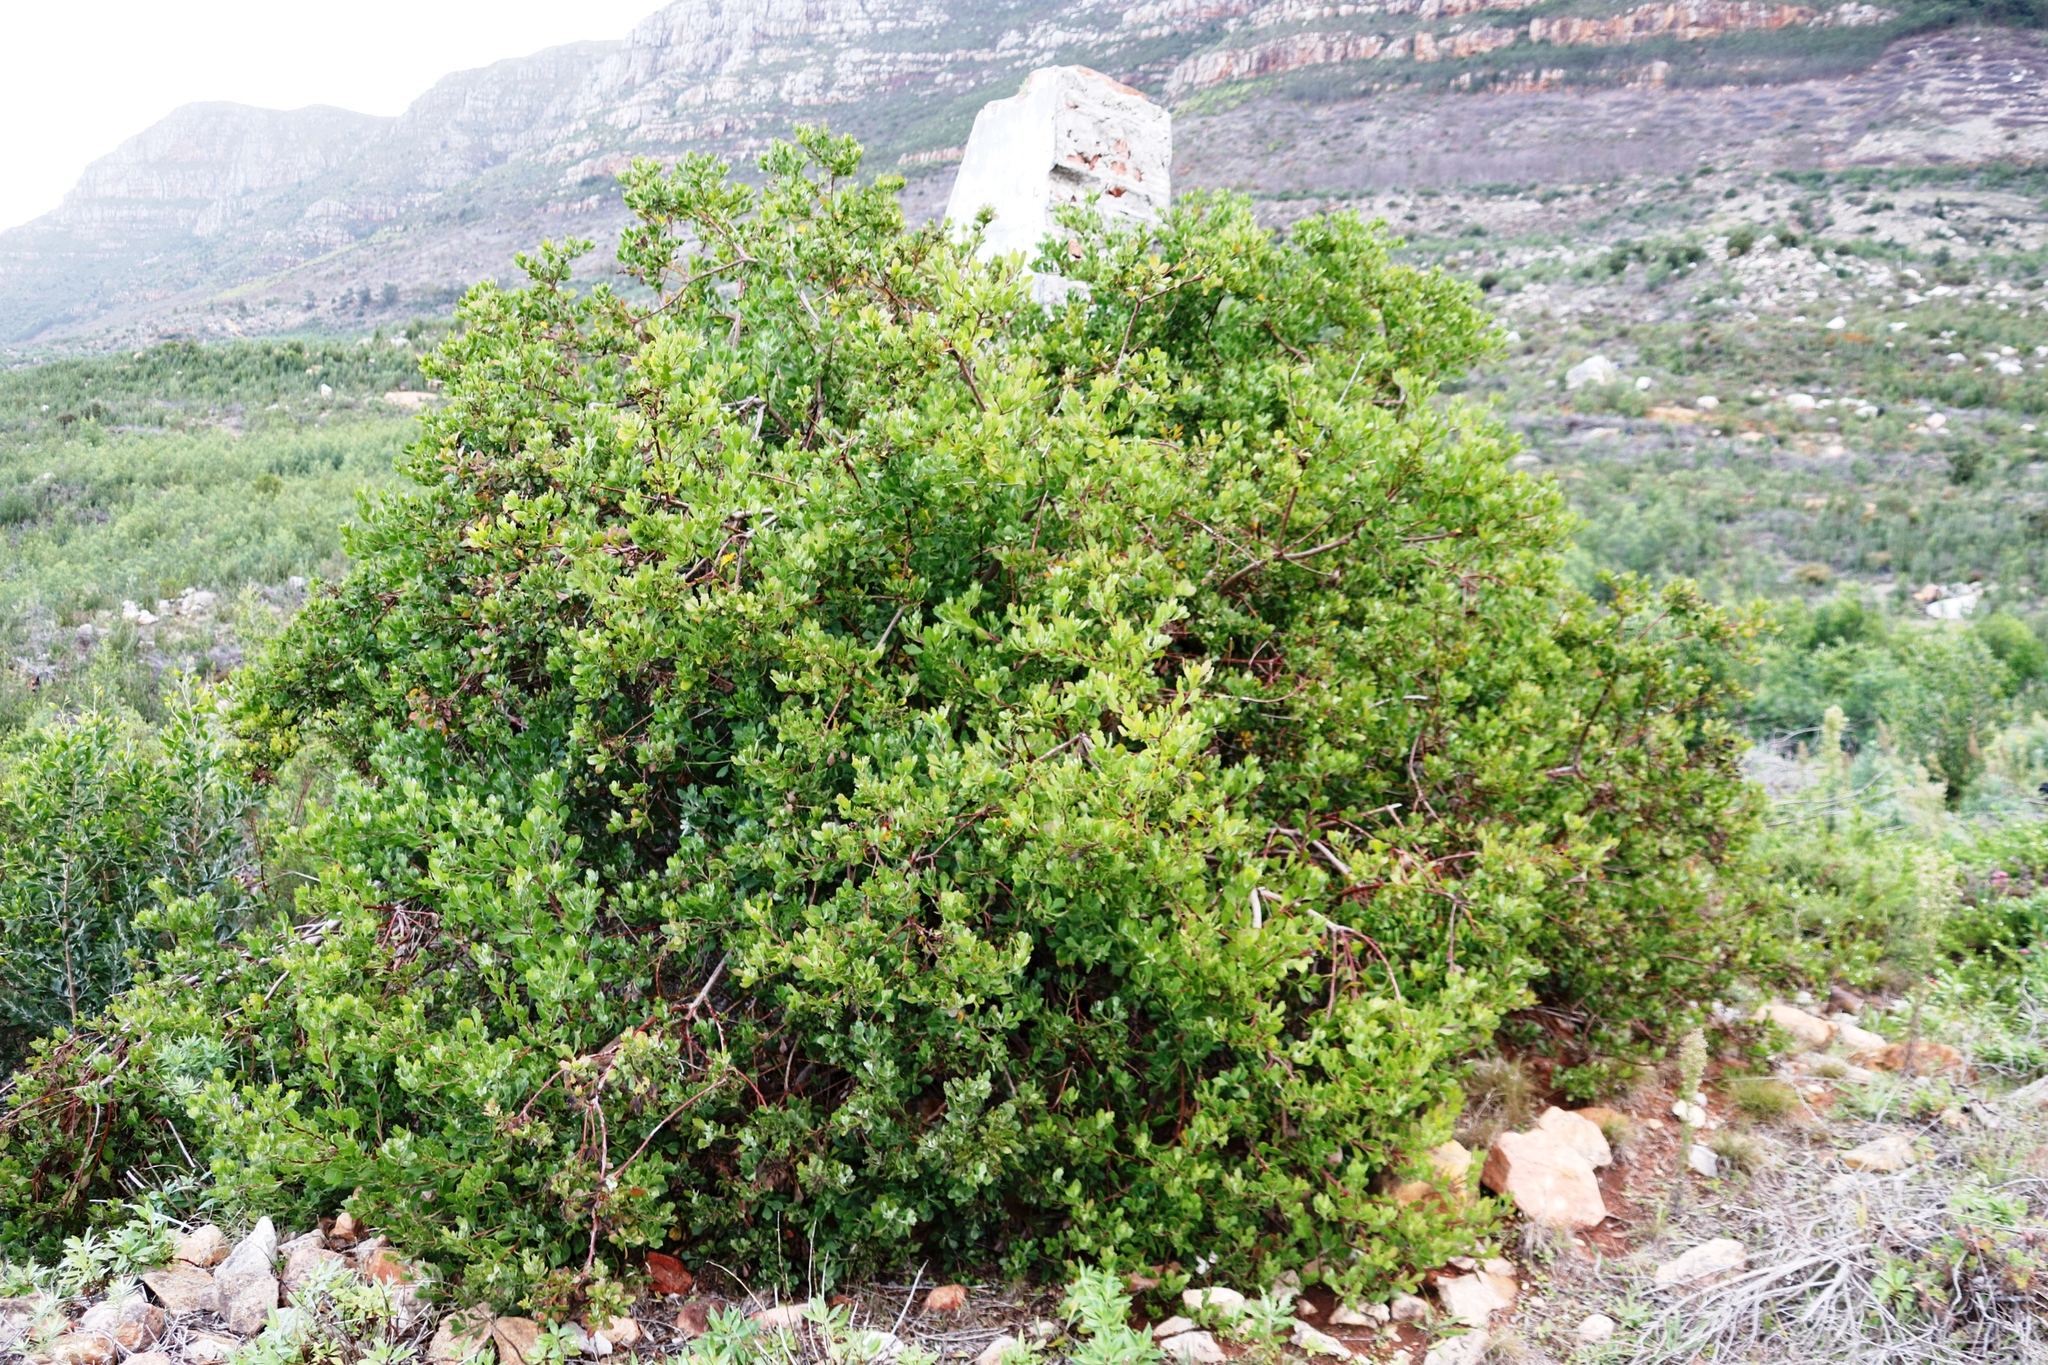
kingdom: Plantae
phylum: Tracheophyta
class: Magnoliopsida
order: Asterales
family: Asteraceae
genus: Osteospermum
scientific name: Osteospermum moniliferum
